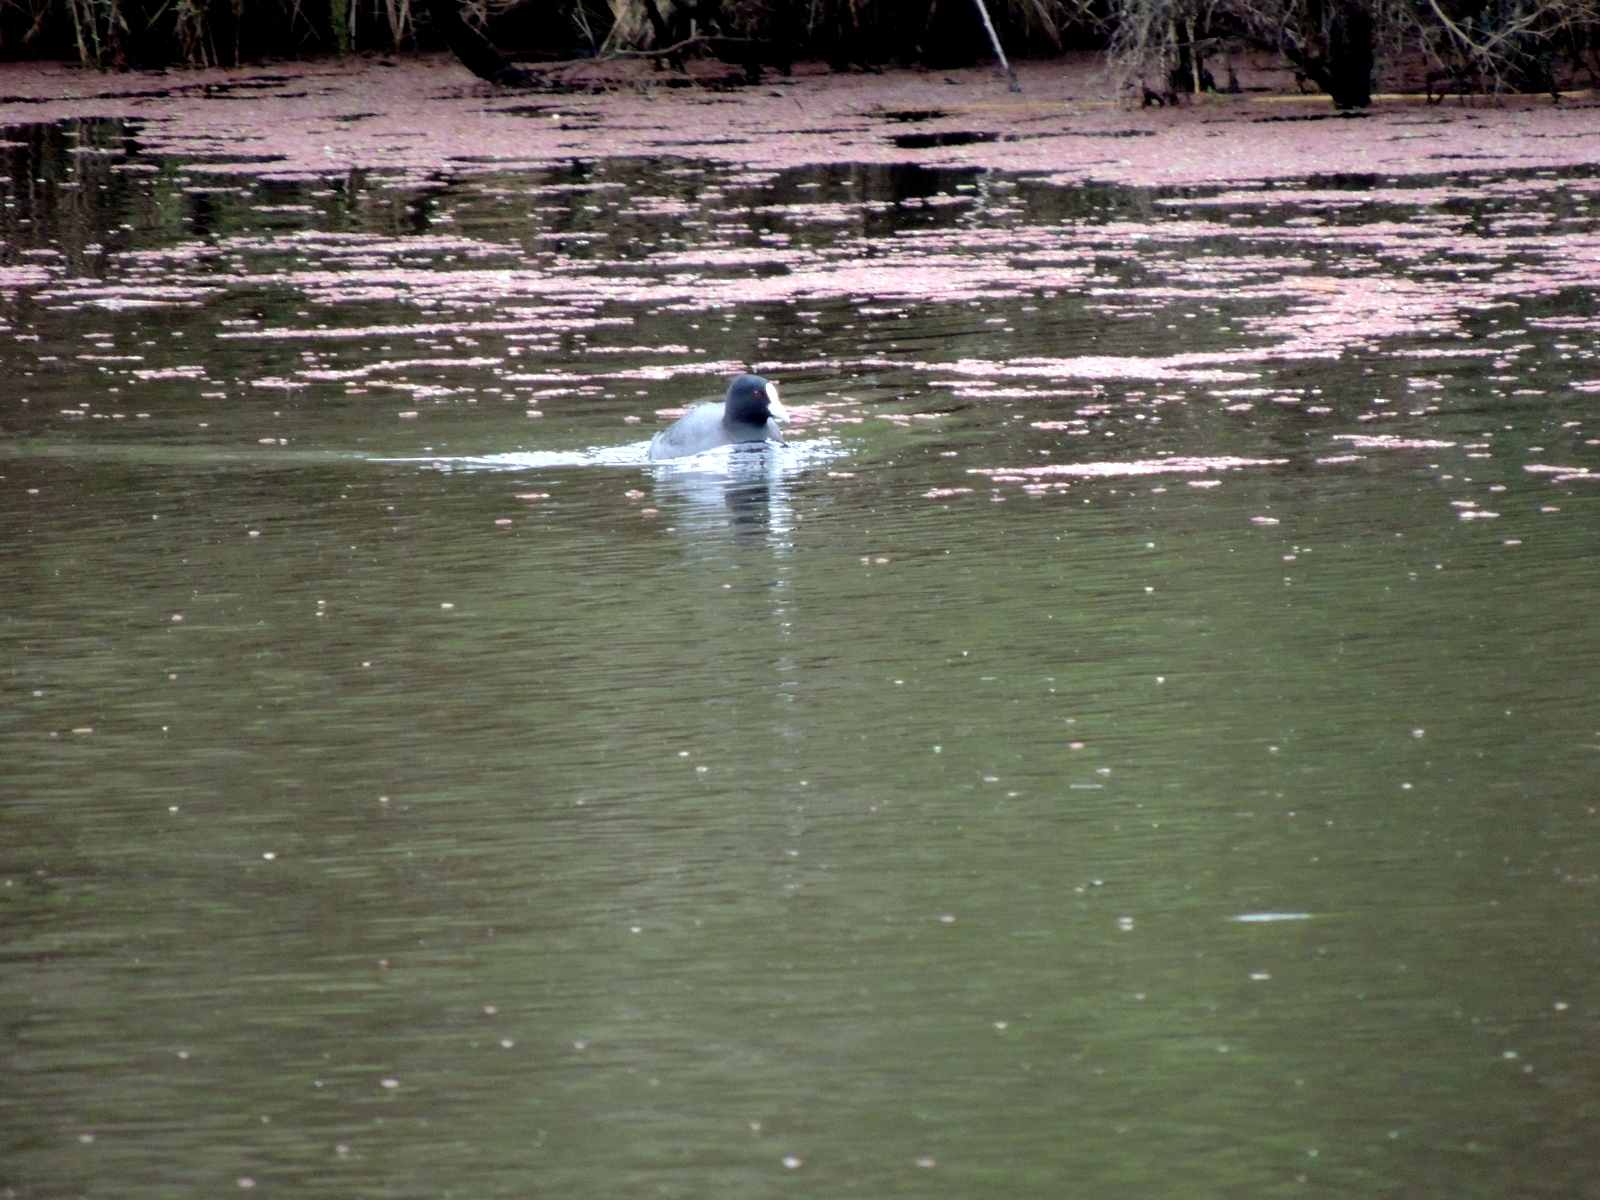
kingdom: Animalia
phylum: Chordata
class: Aves
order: Gruiformes
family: Rallidae
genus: Fulica
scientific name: Fulica atra
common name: Eurasian coot
